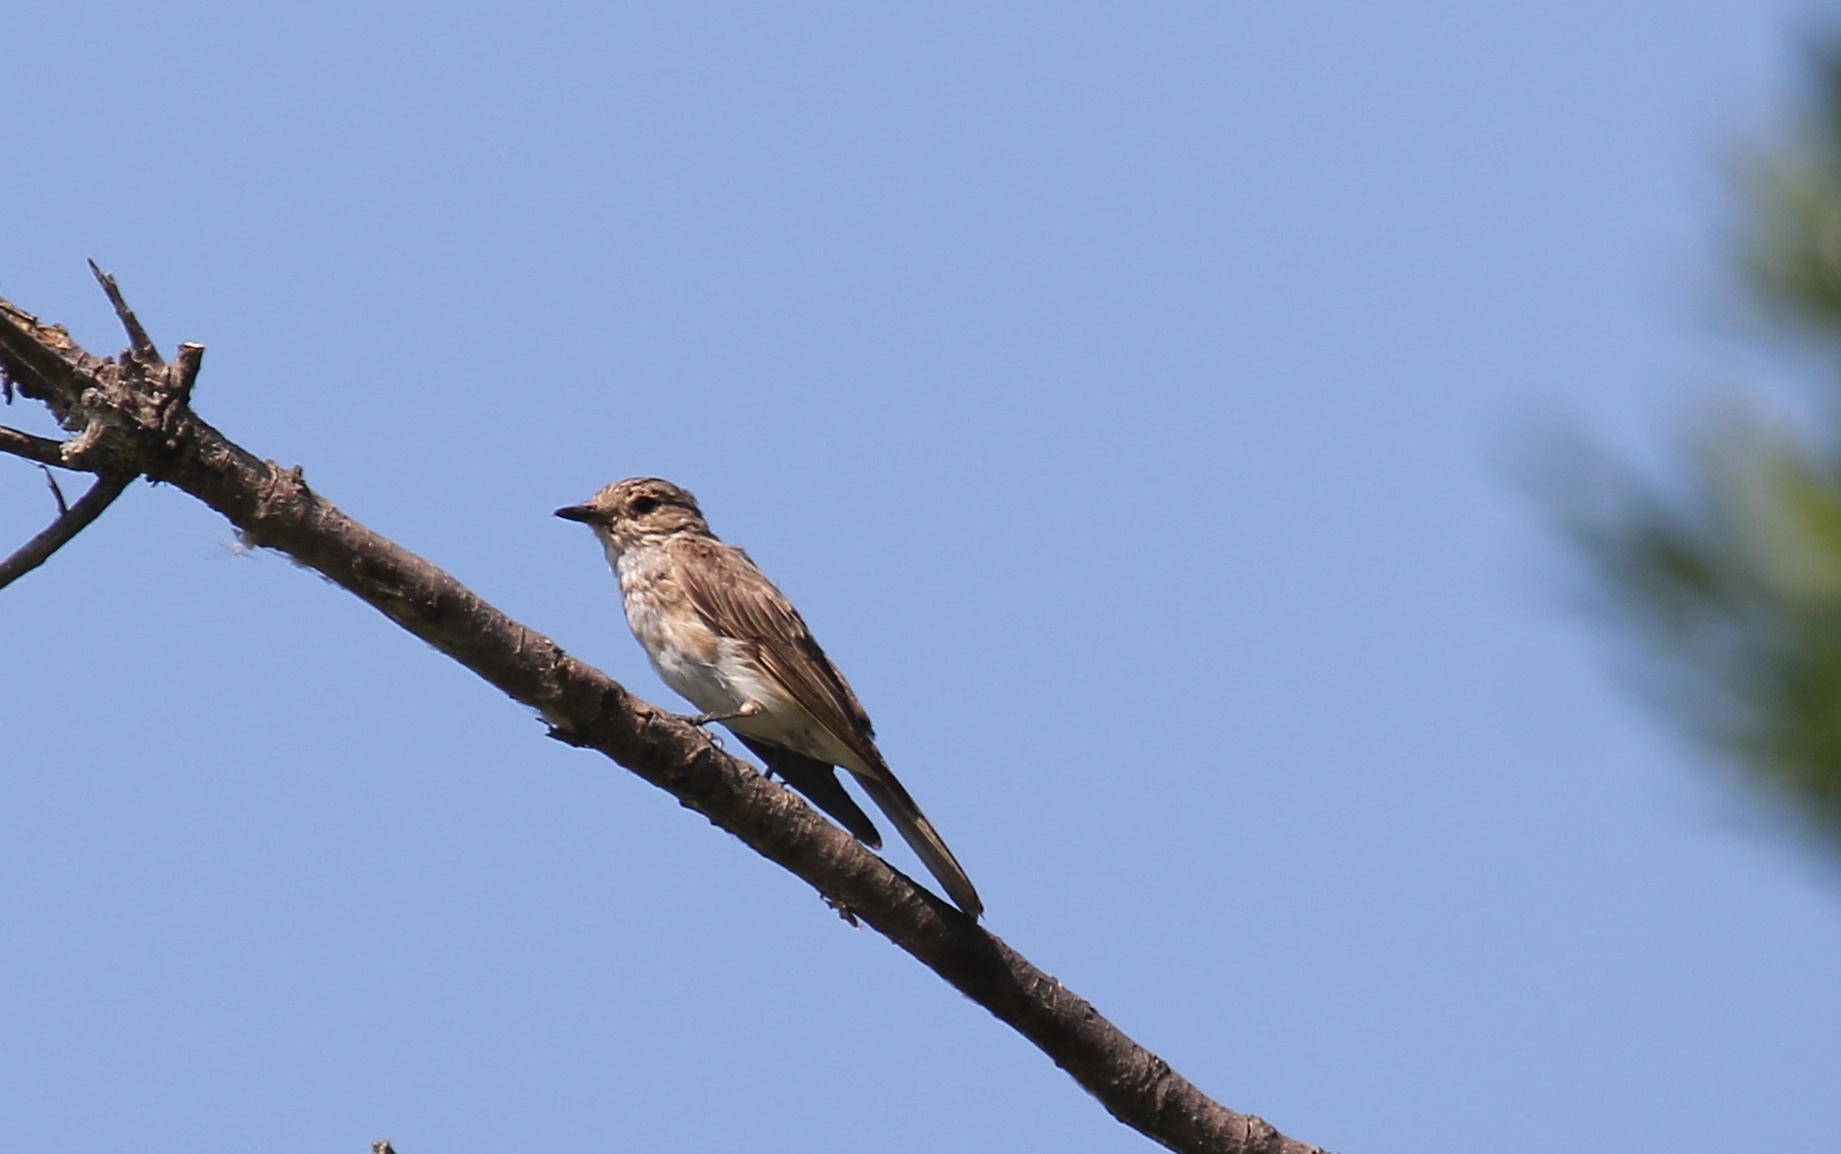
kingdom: Animalia
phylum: Chordata
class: Aves
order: Passeriformes
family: Muscicapidae
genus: Muscicapa
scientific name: Muscicapa striata
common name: Spotted flycatcher
